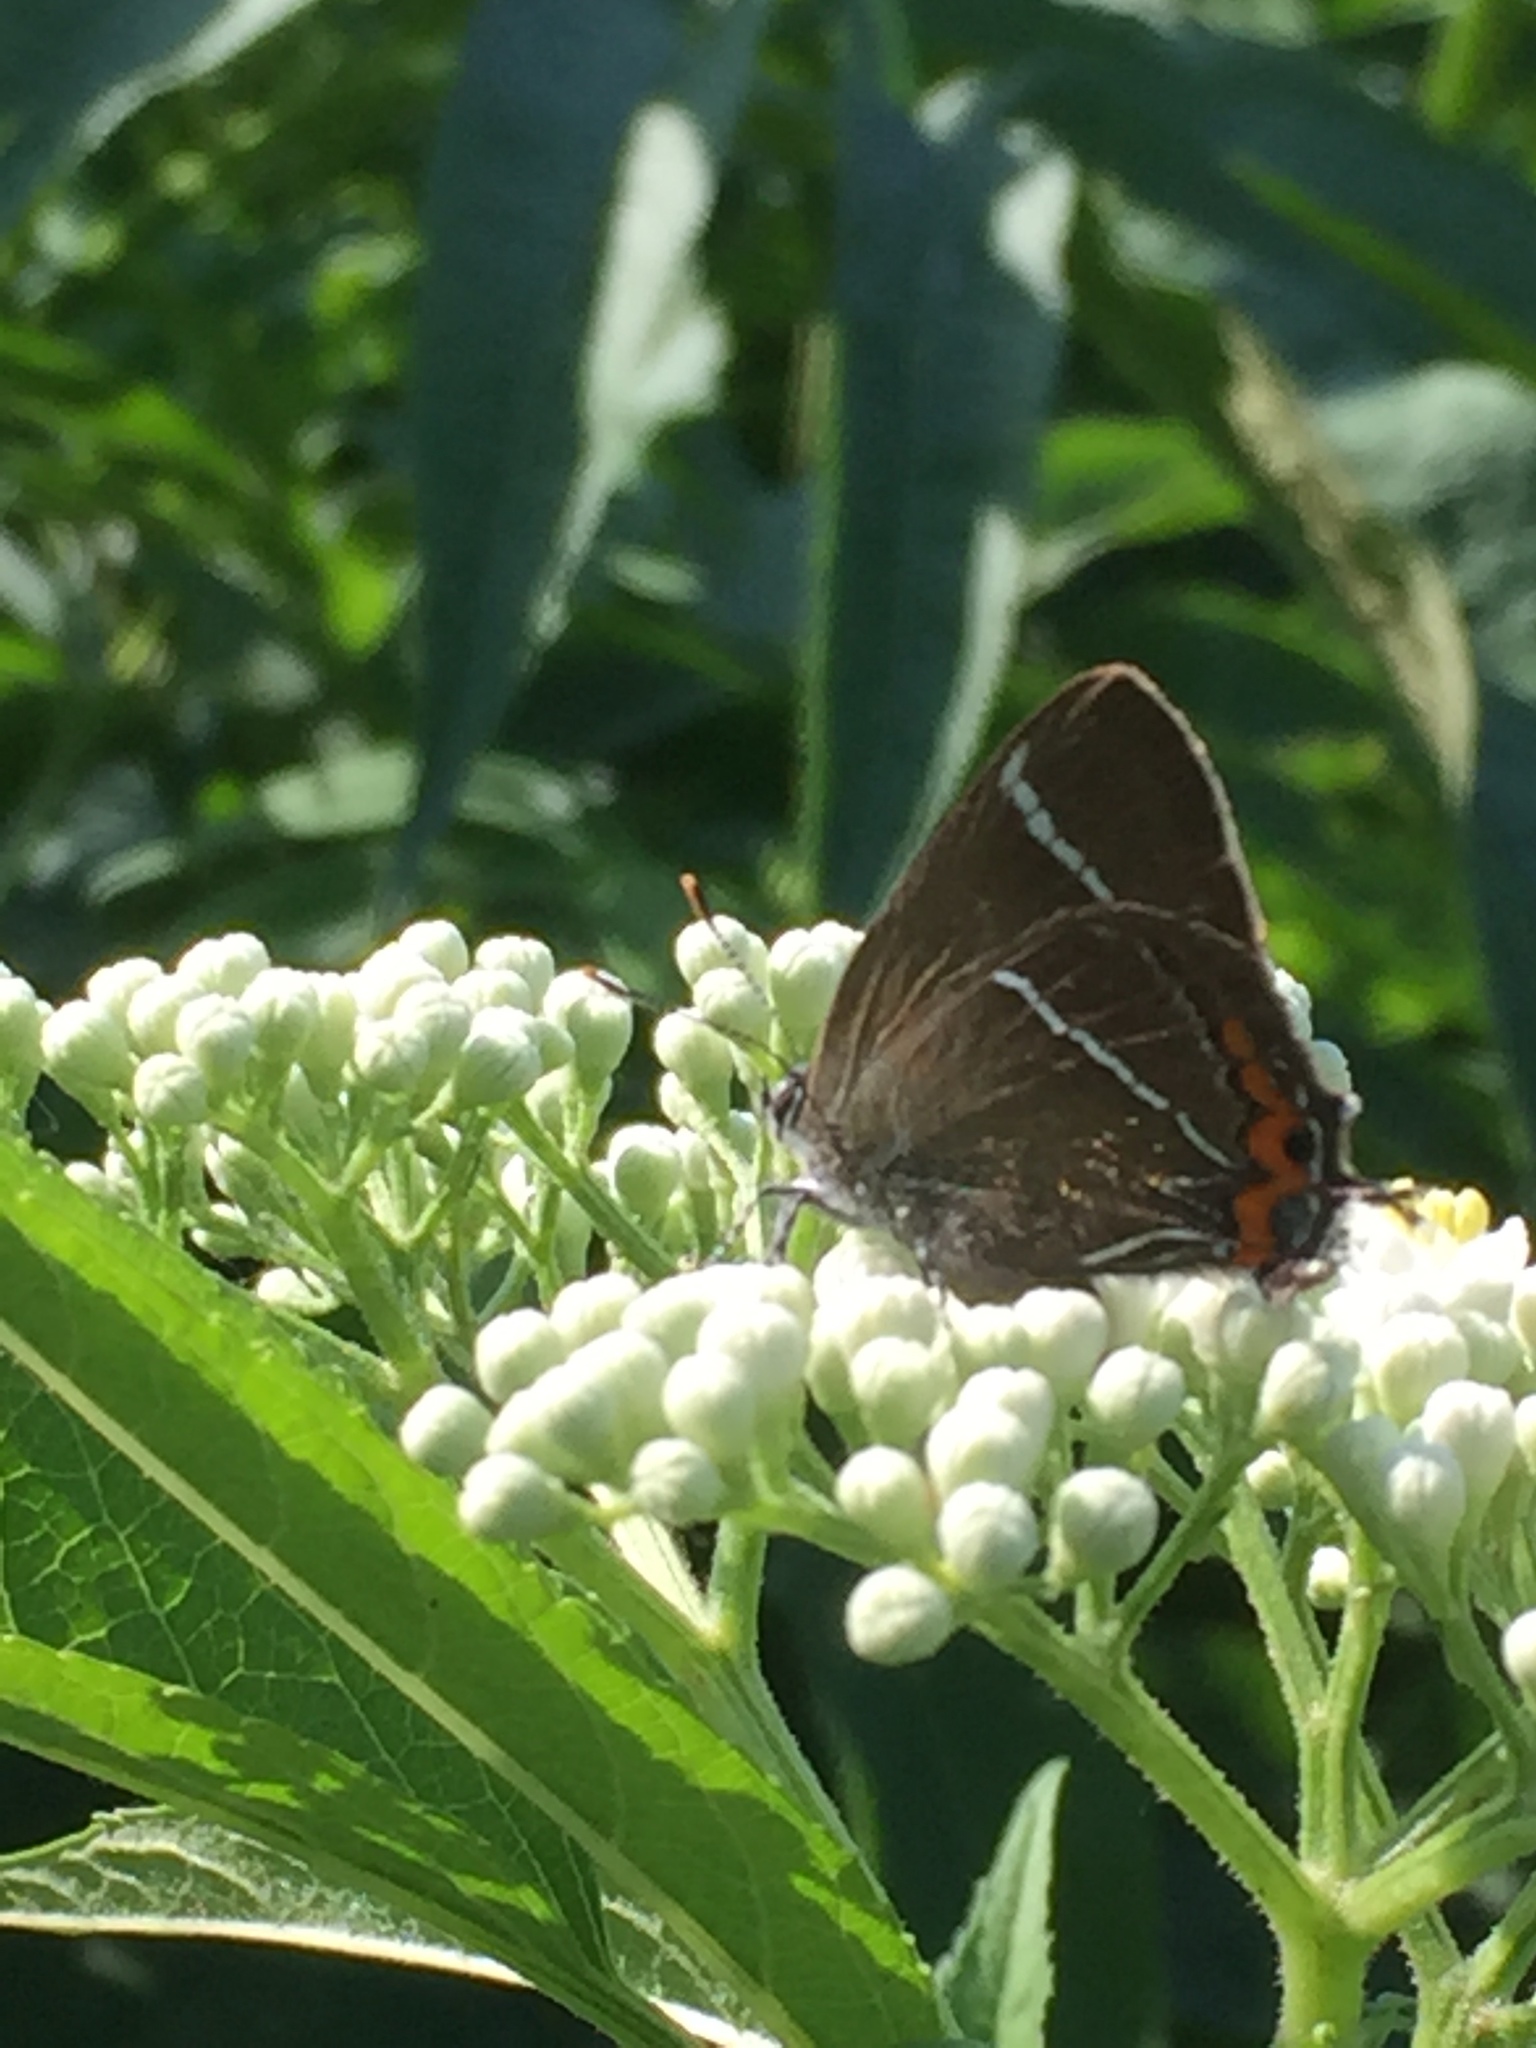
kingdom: Animalia
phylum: Arthropoda
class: Insecta
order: Lepidoptera
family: Lycaenidae
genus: Satyrium
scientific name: Satyrium w-album
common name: White-letter hairstreak
